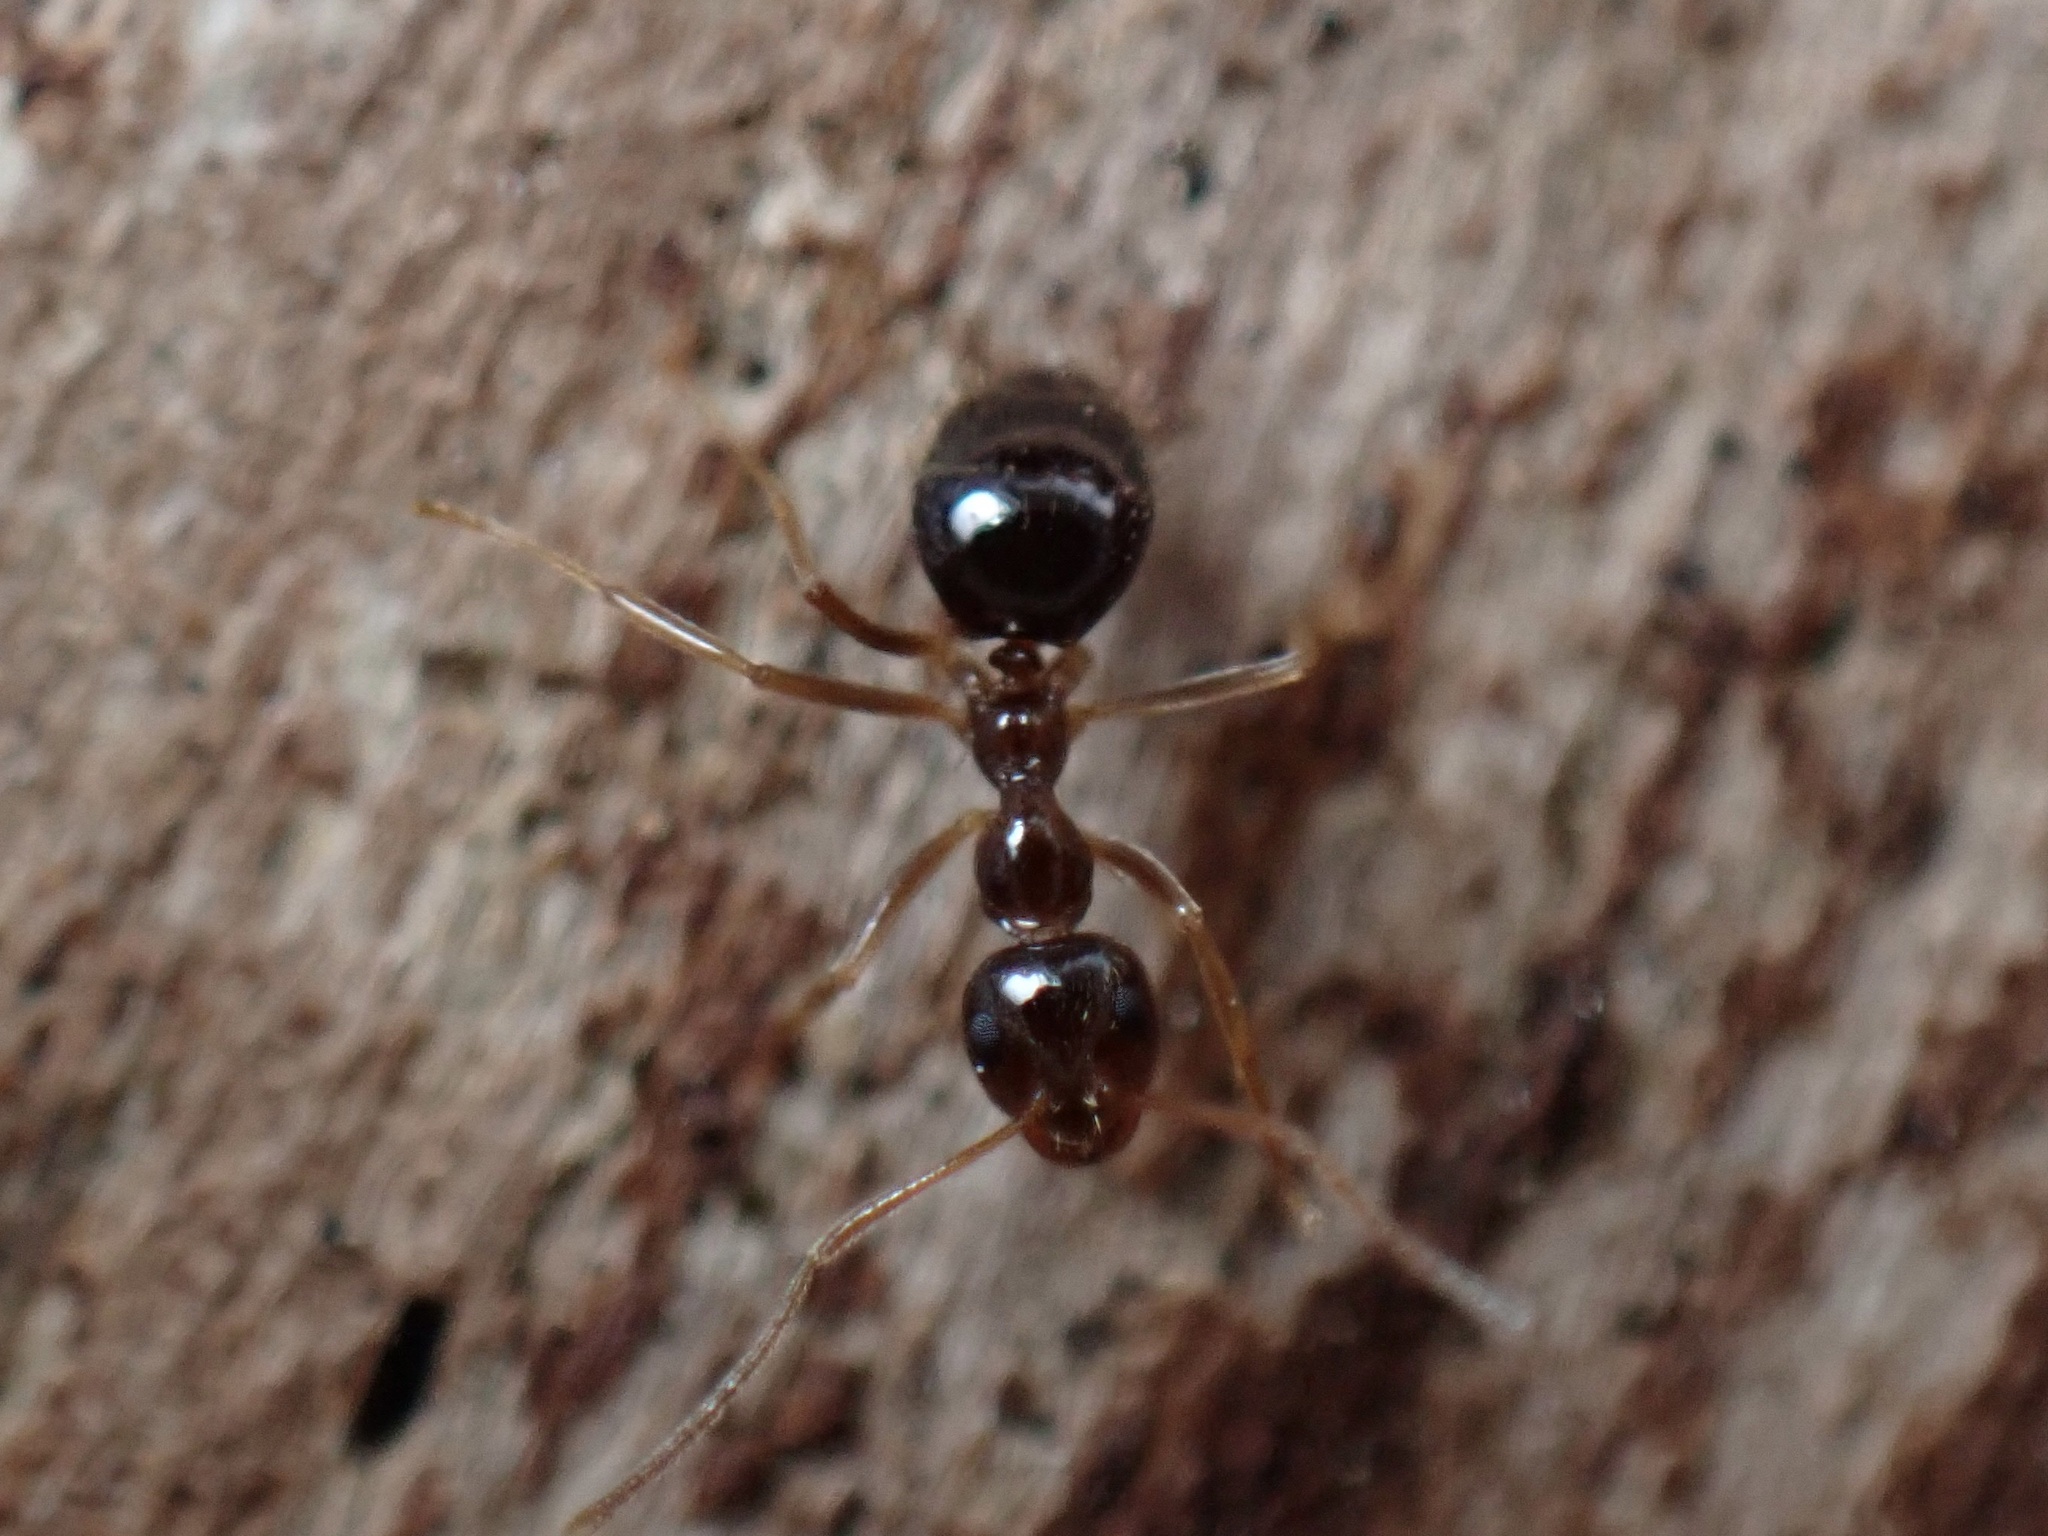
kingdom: Animalia
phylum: Arthropoda
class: Insecta
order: Hymenoptera
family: Formicidae
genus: Prenolepis
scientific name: Prenolepis imparis
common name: Small honey ant
